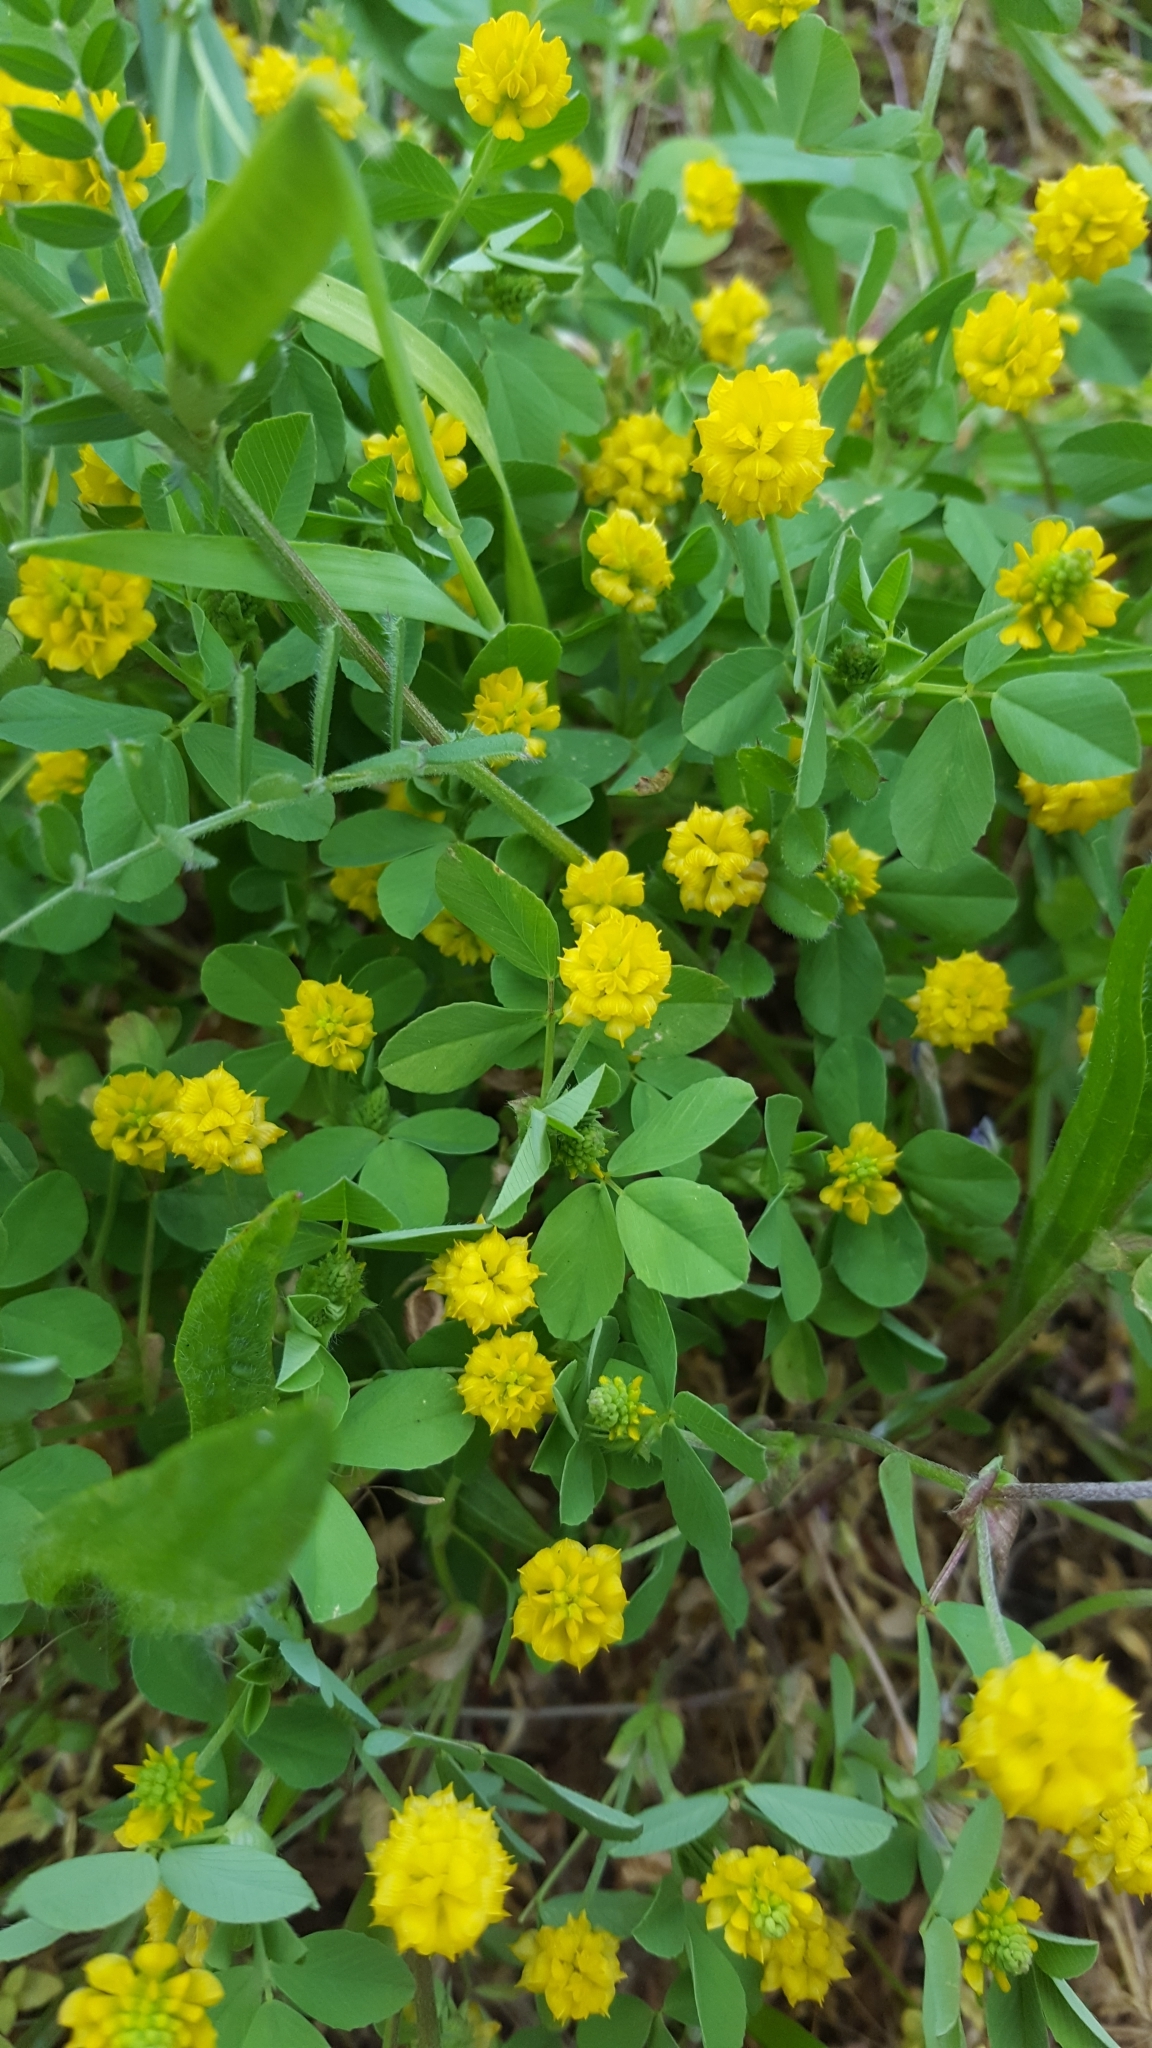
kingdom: Plantae
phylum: Tracheophyta
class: Magnoliopsida
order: Fabales
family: Fabaceae
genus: Trifolium
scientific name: Trifolium campestre
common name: Field clover
